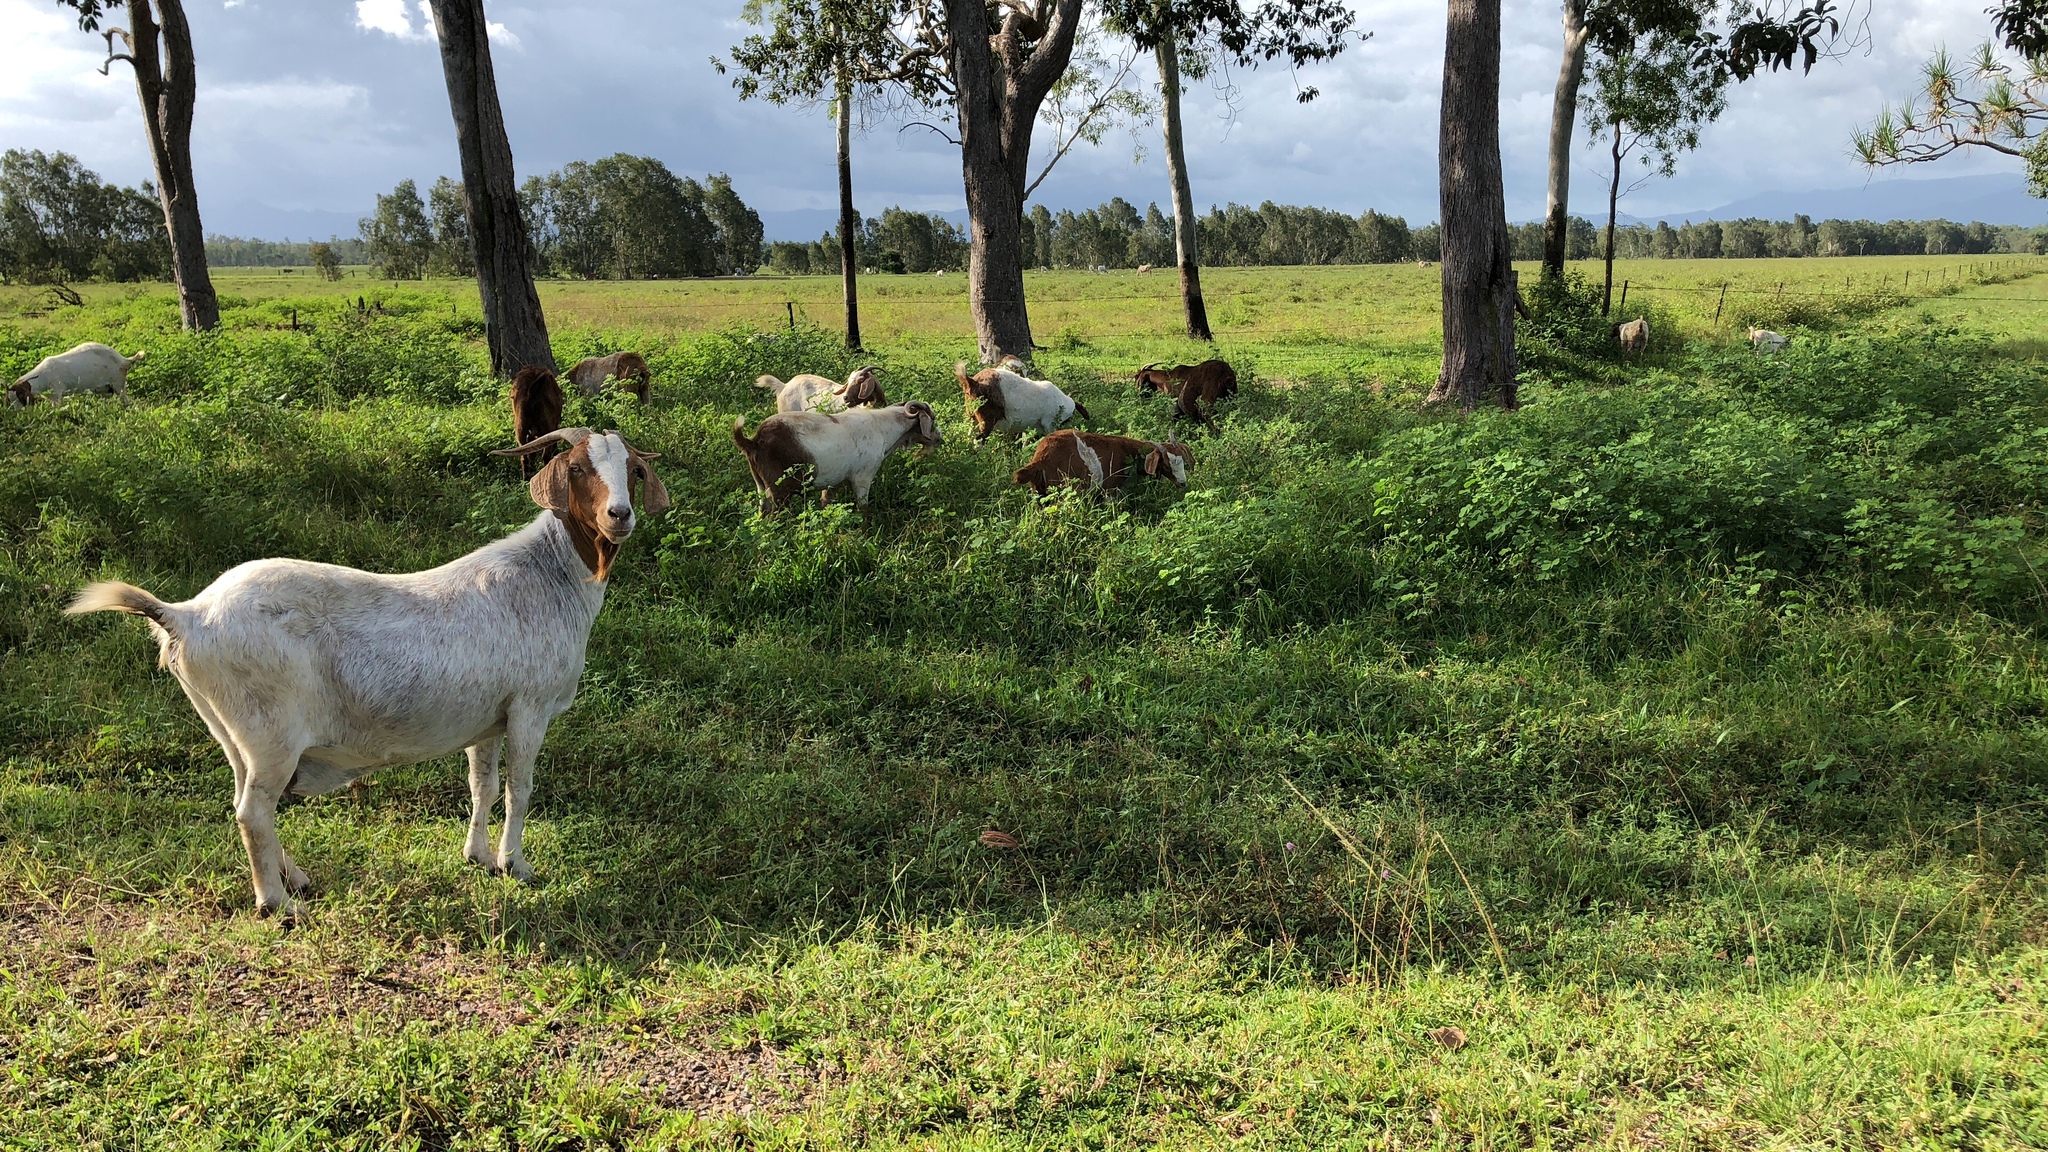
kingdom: Animalia
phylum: Chordata
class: Mammalia
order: Artiodactyla
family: Bovidae
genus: Capra
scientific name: Capra hircus
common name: Domestic goat
